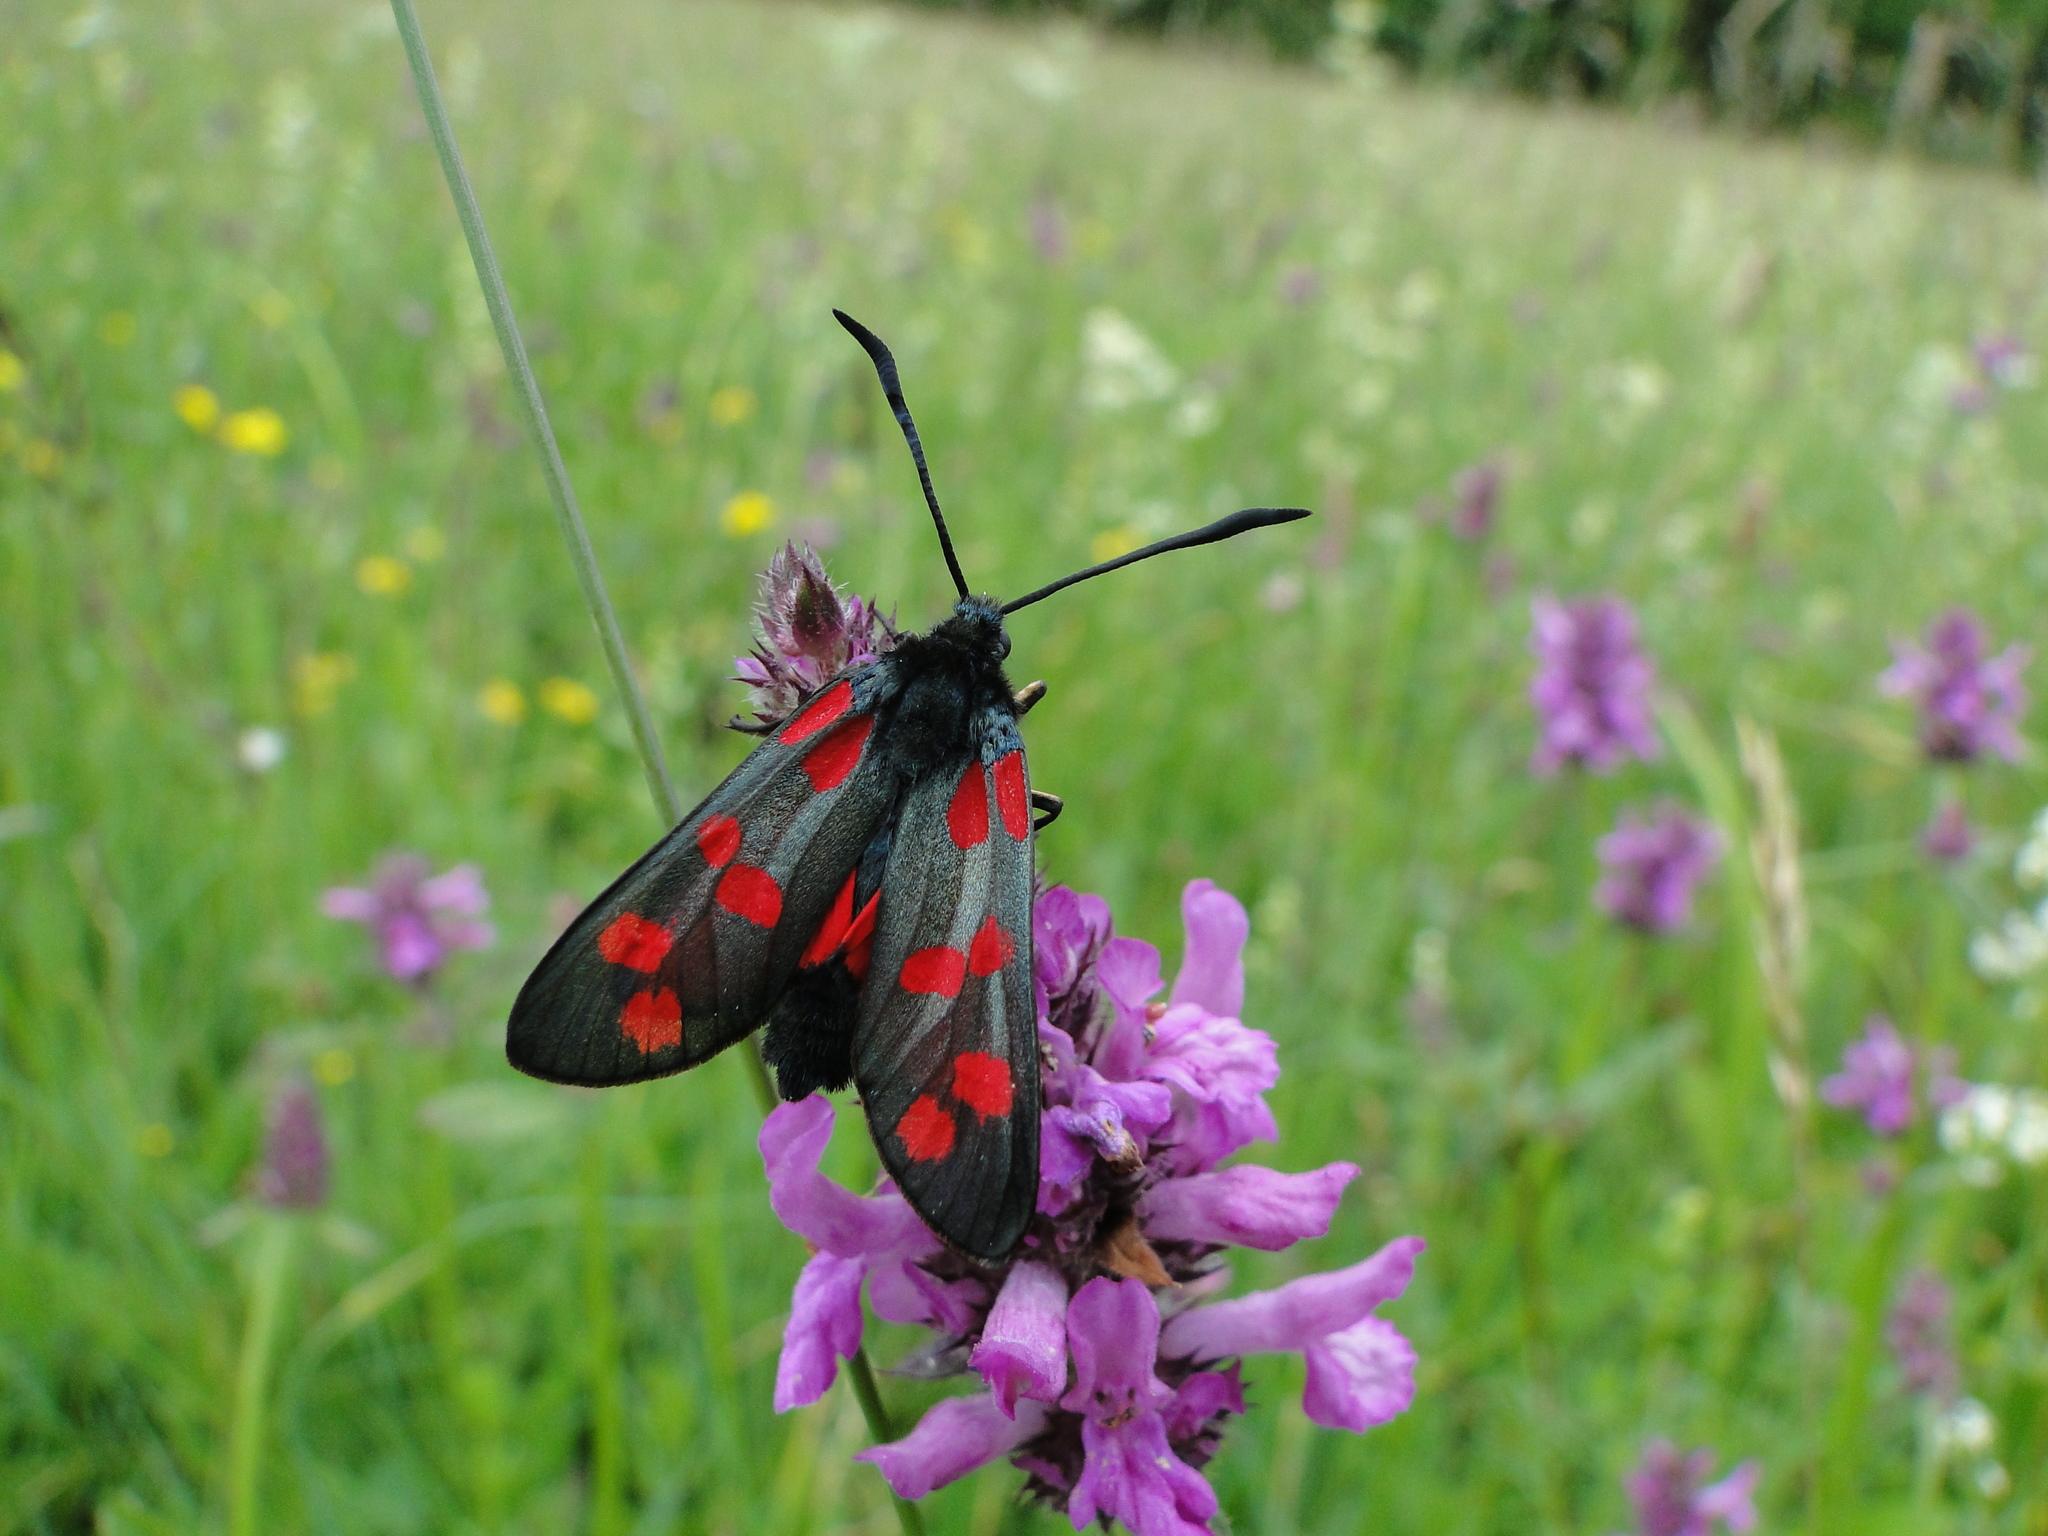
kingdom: Animalia
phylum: Arthropoda
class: Insecta
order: Lepidoptera
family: Zygaenidae
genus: Zygaena
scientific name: Zygaena filipendulae
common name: Six-spot burnet
